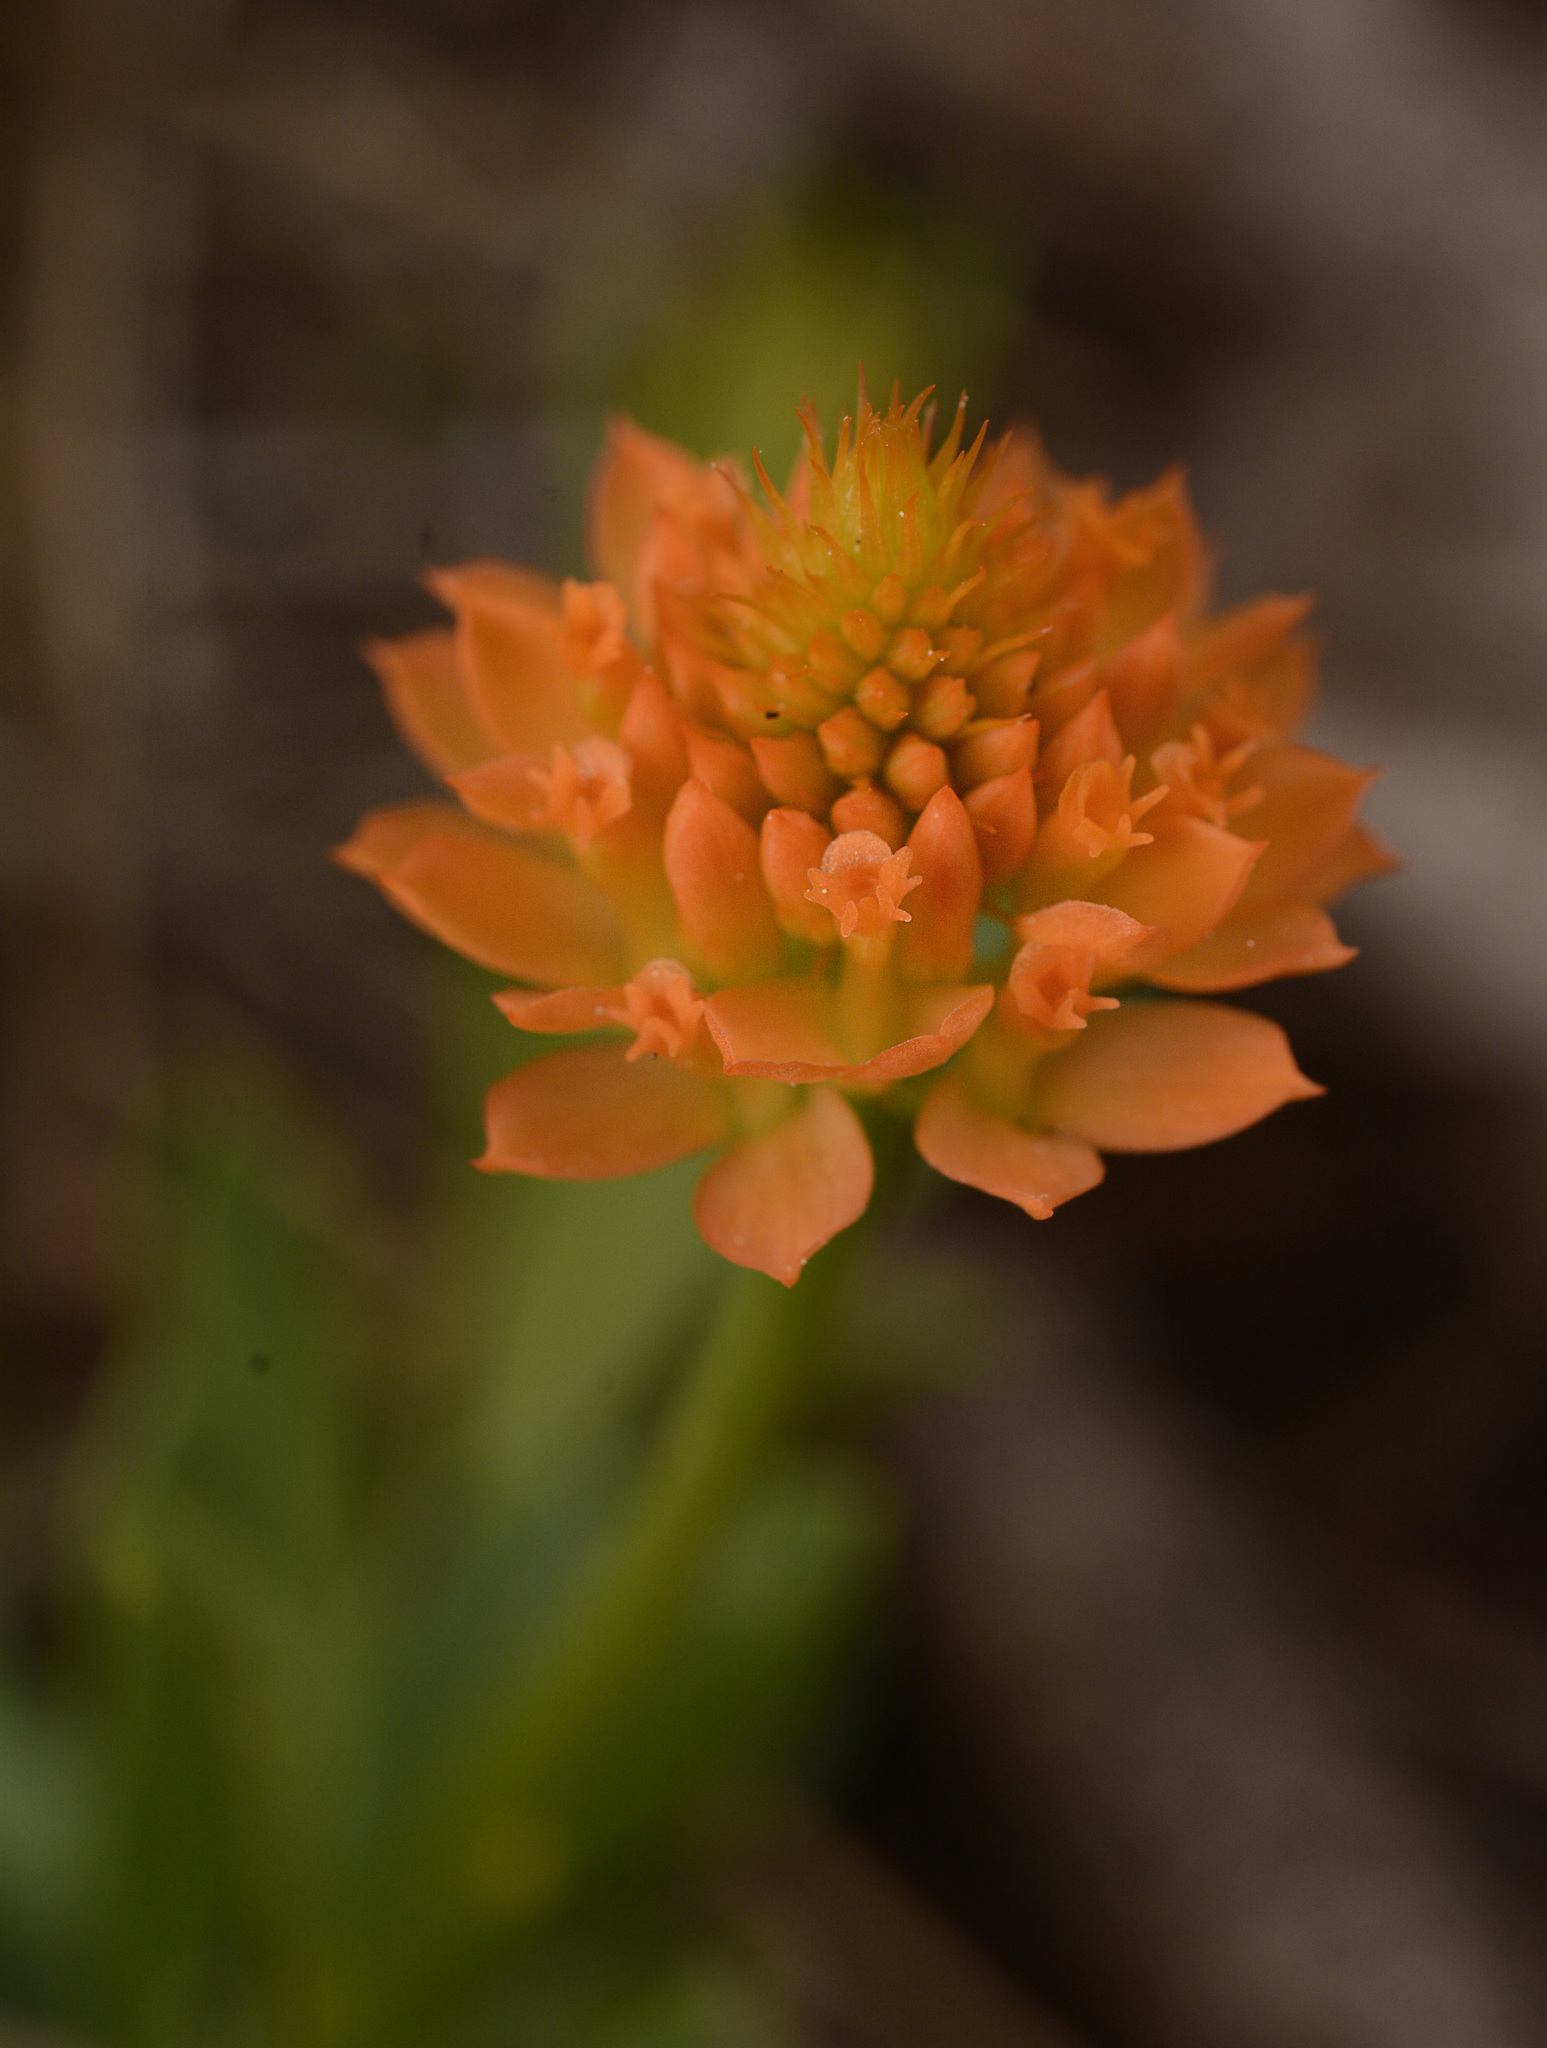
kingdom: Plantae
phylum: Tracheophyta
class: Magnoliopsida
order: Fabales
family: Polygalaceae
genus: Polygala
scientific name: Polygala lutea
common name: Orange milkwort
